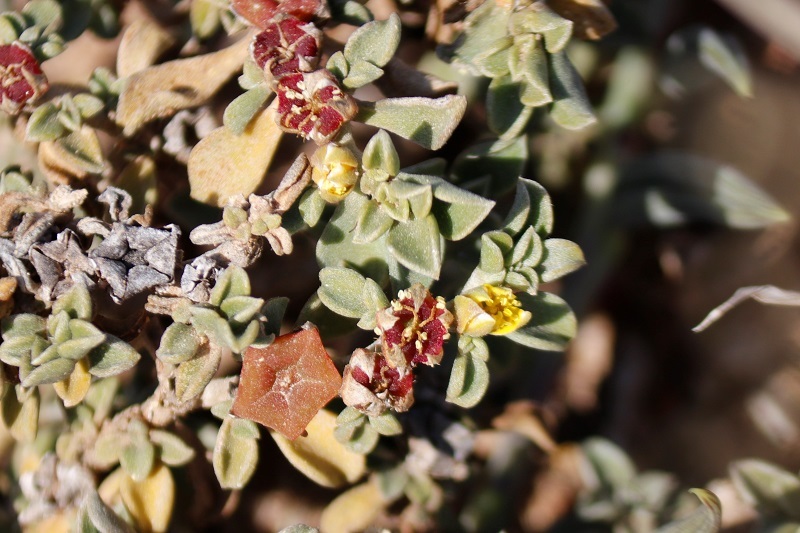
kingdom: Plantae
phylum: Tracheophyta
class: Magnoliopsida
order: Caryophyllales
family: Aizoaceae
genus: Aizoon
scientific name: Aizoon rigidum
